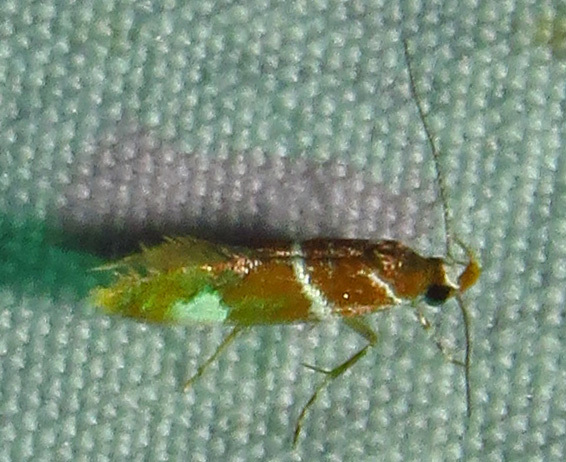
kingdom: Animalia
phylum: Arthropoda
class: Insecta
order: Lepidoptera
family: Oecophoridae
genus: Promalactis
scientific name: Promalactis suzukiella
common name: Moth
